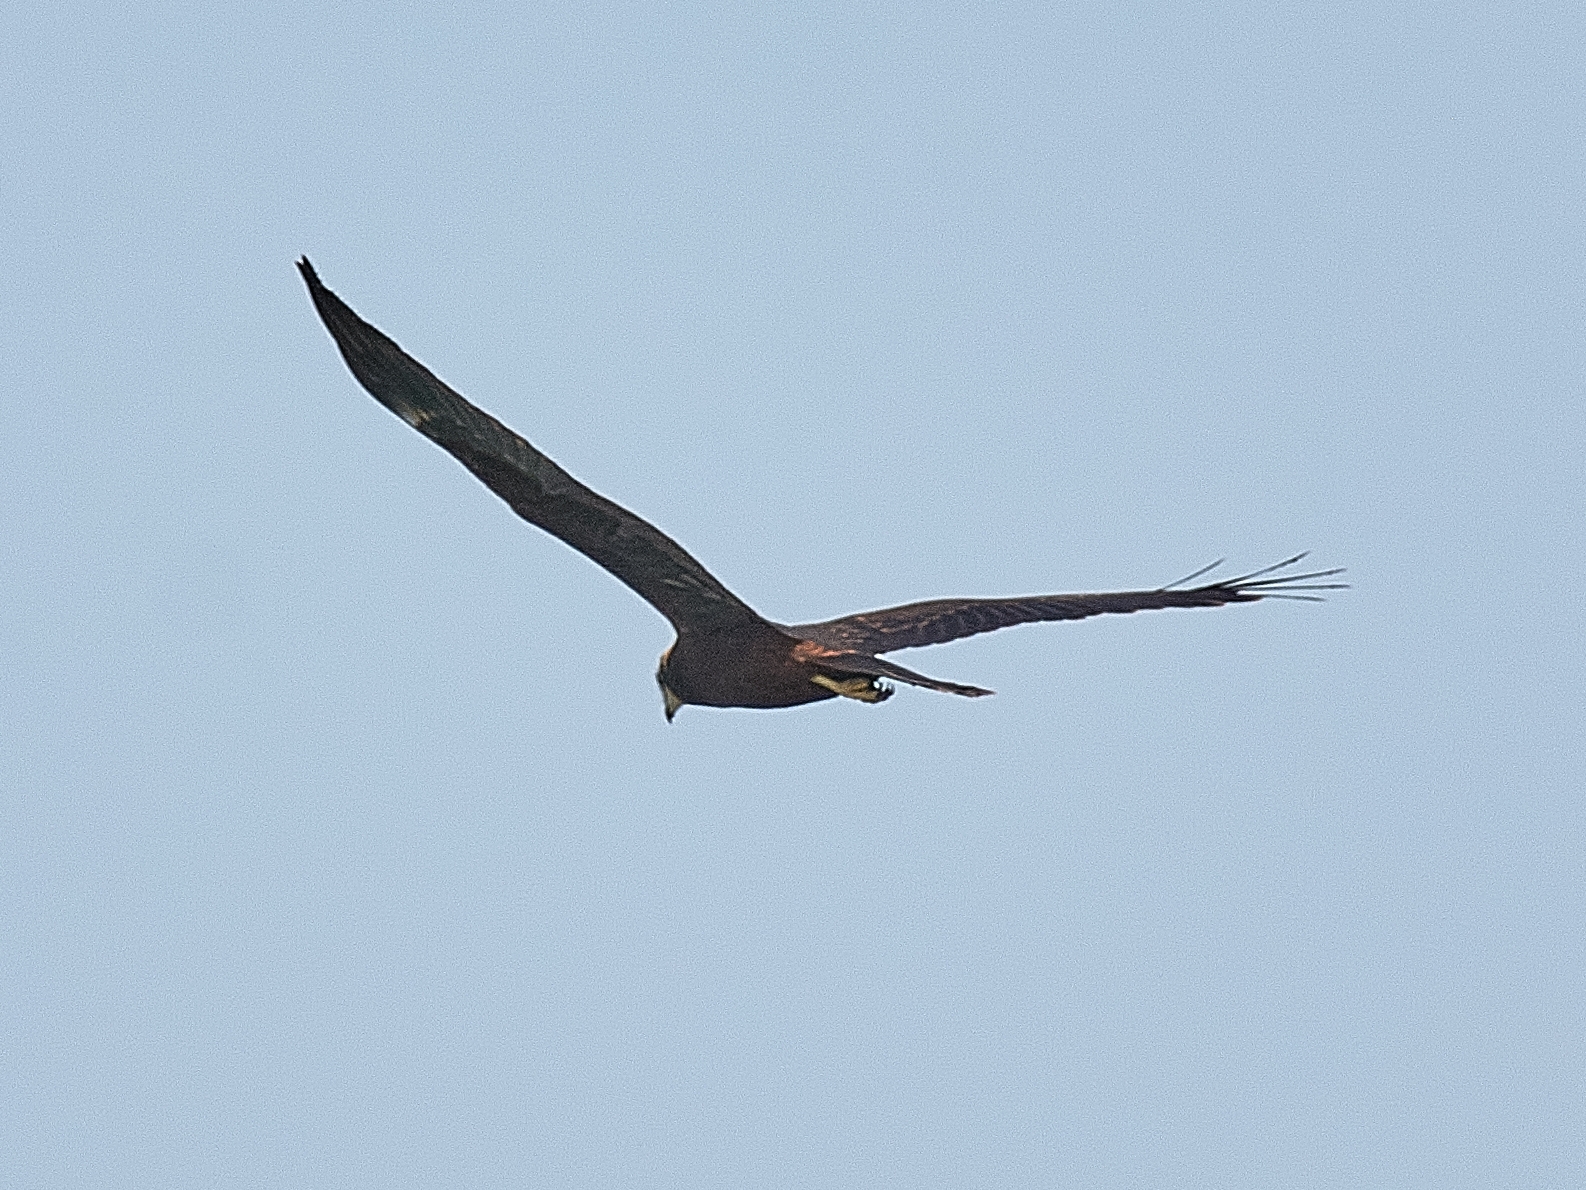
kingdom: Animalia
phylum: Chordata
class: Aves
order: Accipitriformes
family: Accipitridae
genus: Circus
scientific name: Circus aeruginosus
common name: Western marsh harrier
